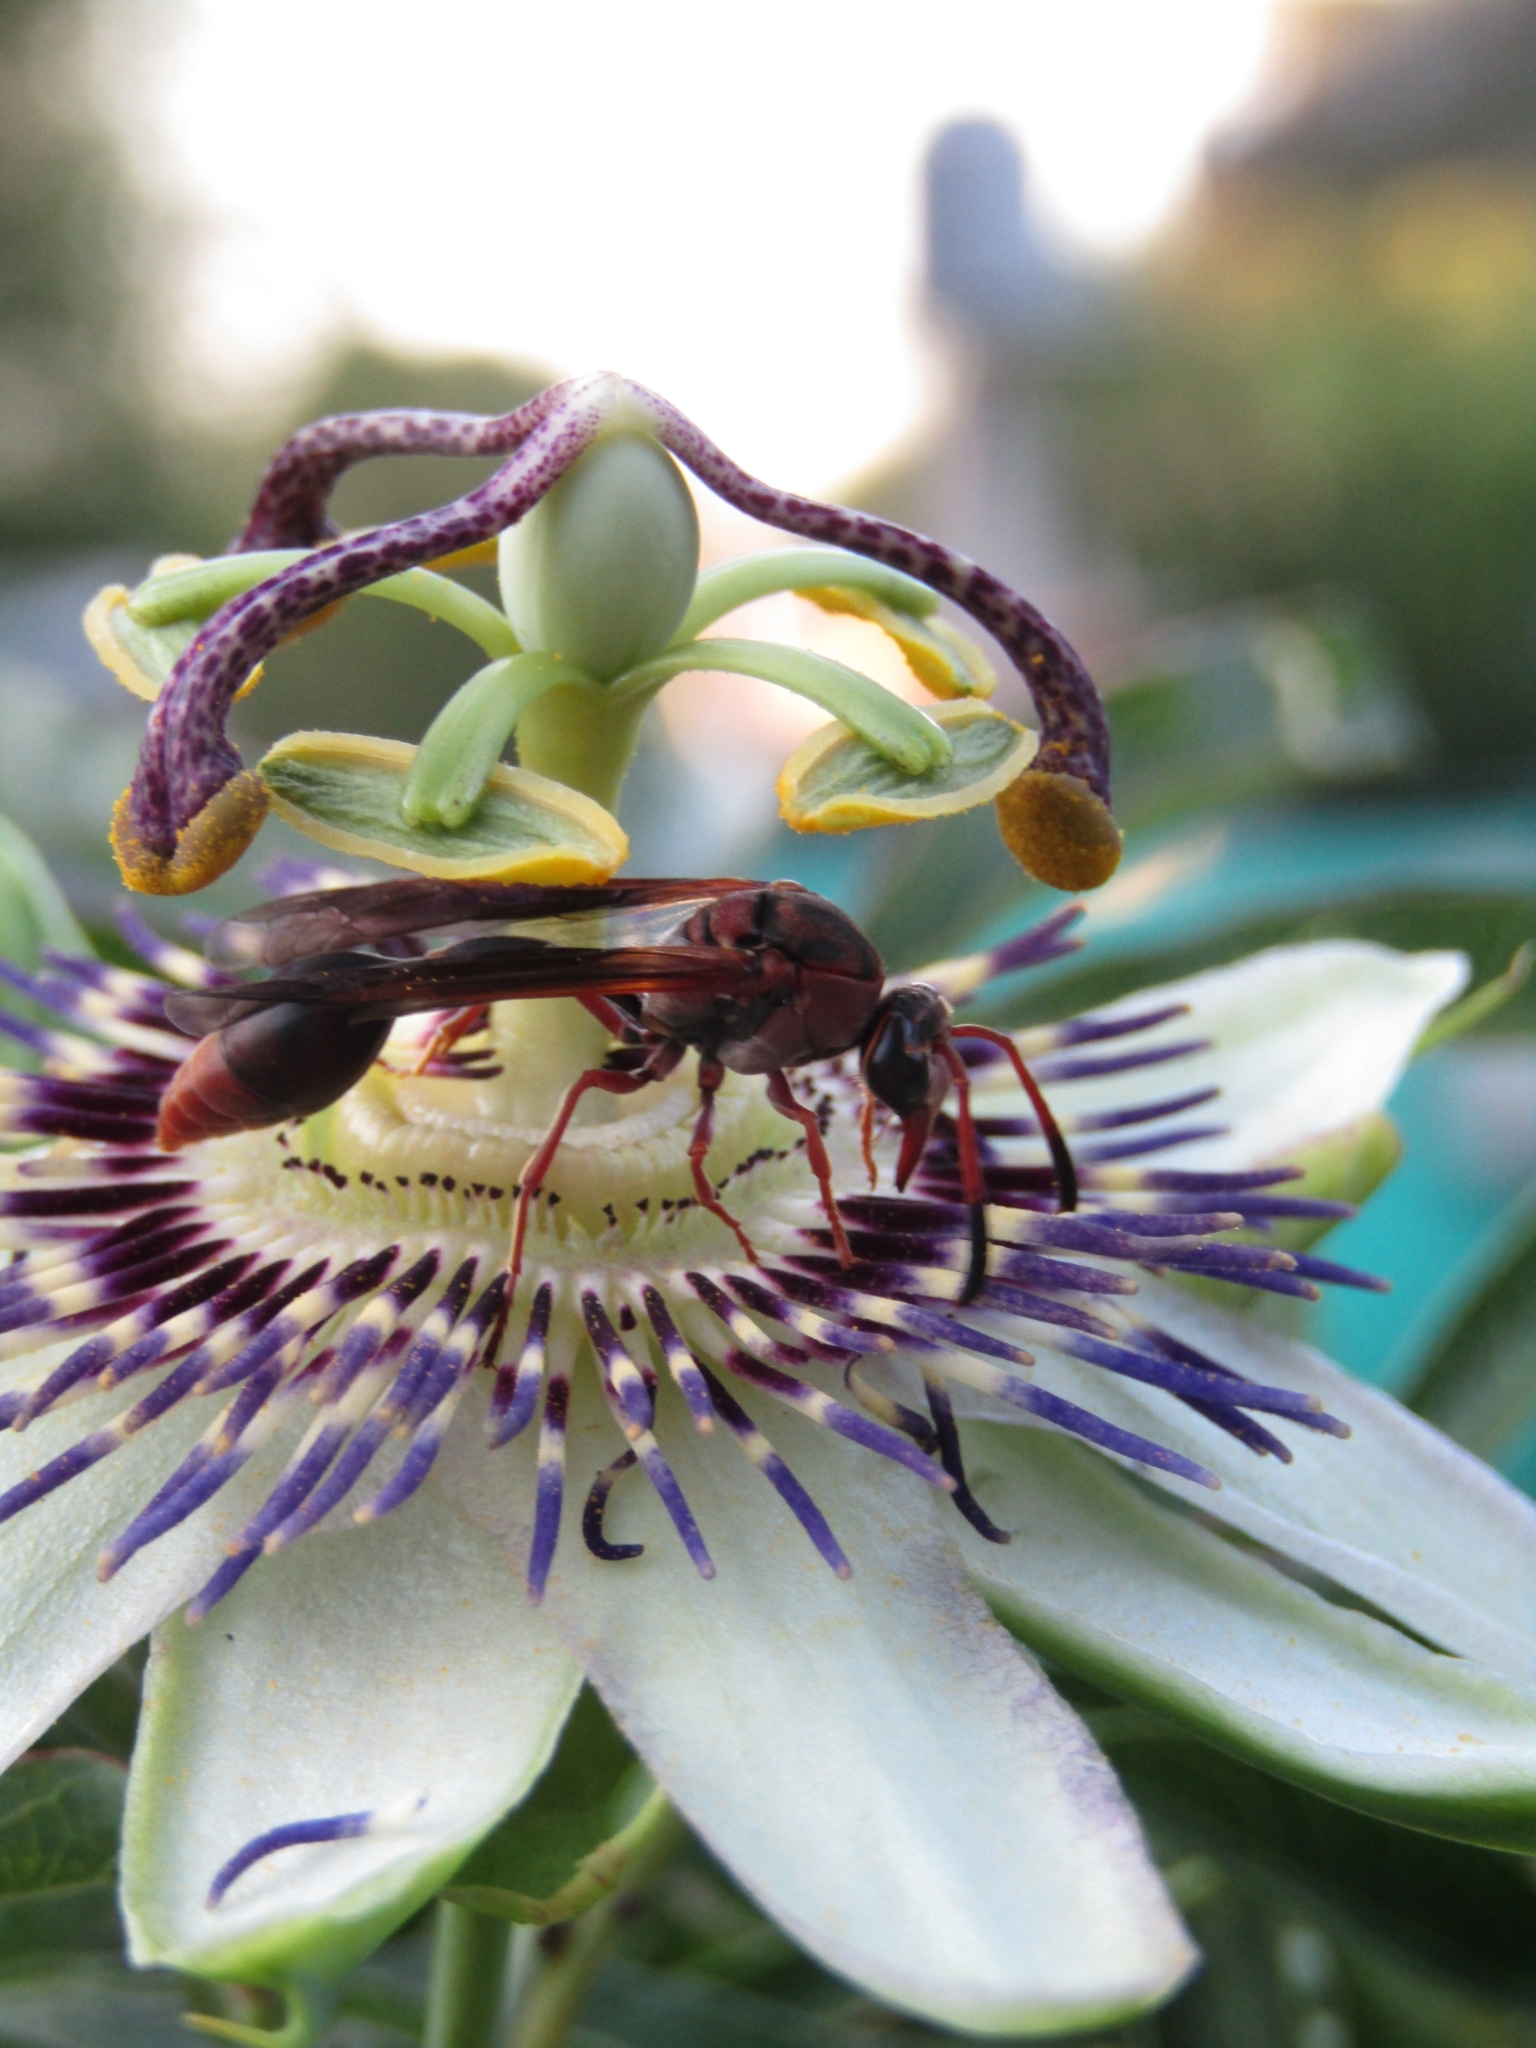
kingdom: Animalia
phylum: Arthropoda
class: Insecta
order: Hymenoptera
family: Eumenidae
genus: Zeta
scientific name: Zeta argillaceum
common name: Potter wasp
